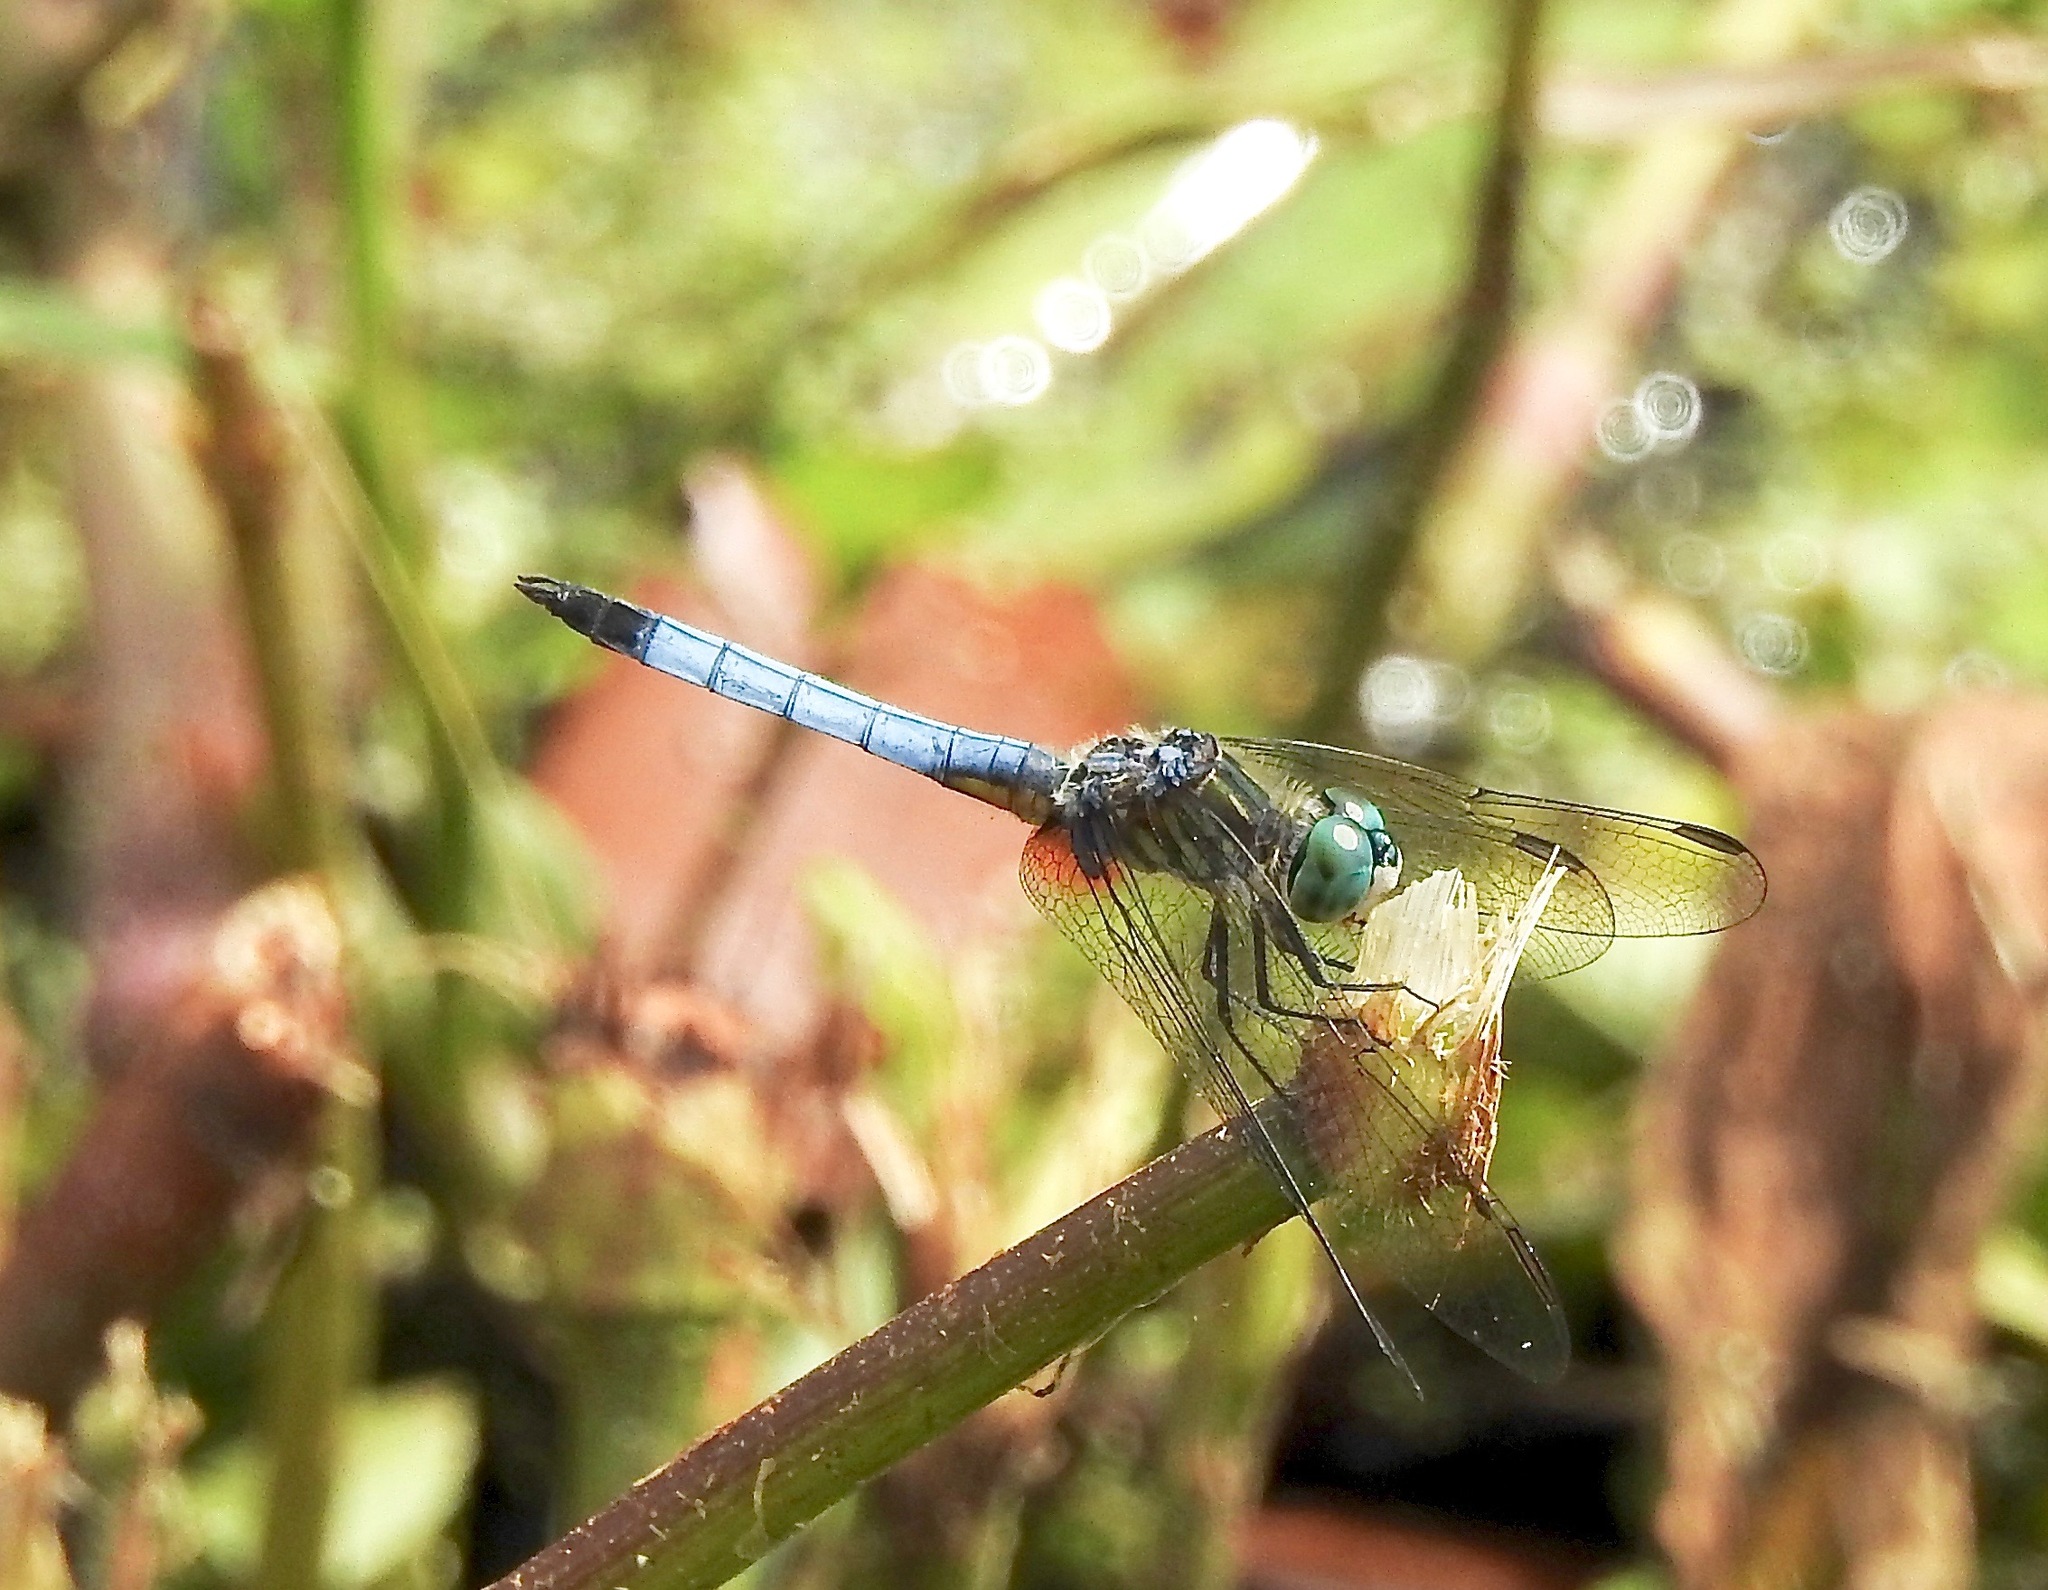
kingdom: Animalia
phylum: Arthropoda
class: Insecta
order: Odonata
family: Libellulidae
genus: Pachydiplax
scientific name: Pachydiplax longipennis
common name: Blue dasher
